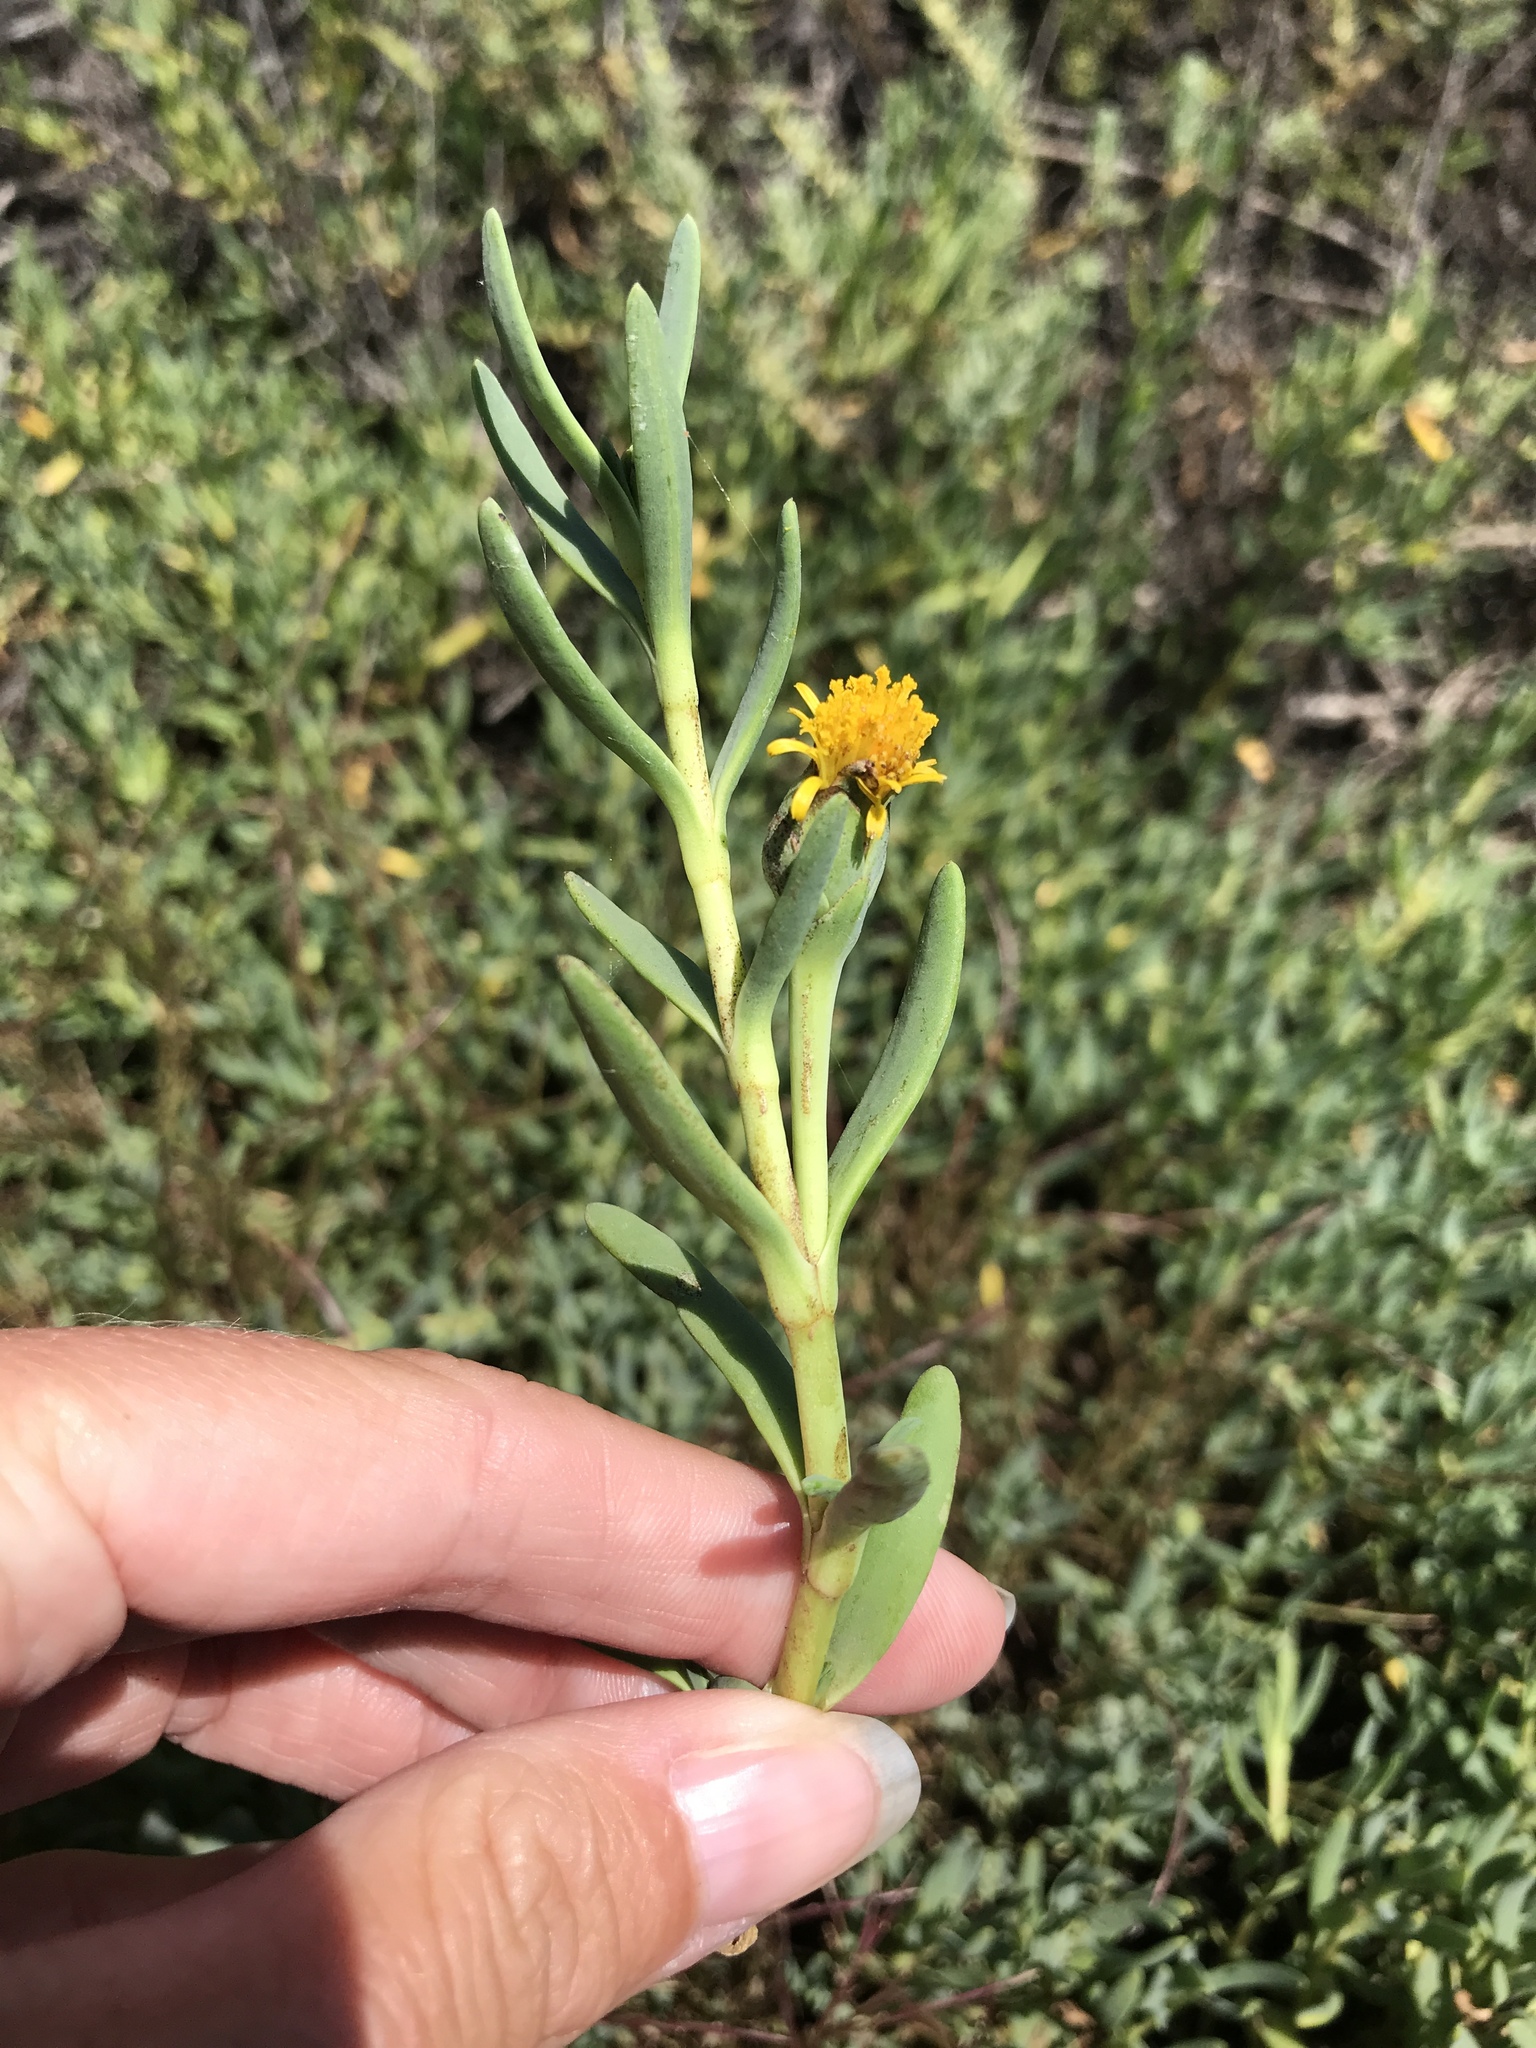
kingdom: Plantae
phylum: Tracheophyta
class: Magnoliopsida
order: Asterales
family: Asteraceae
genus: Jaumea
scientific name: Jaumea carnosa
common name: Fleshy jaumea
